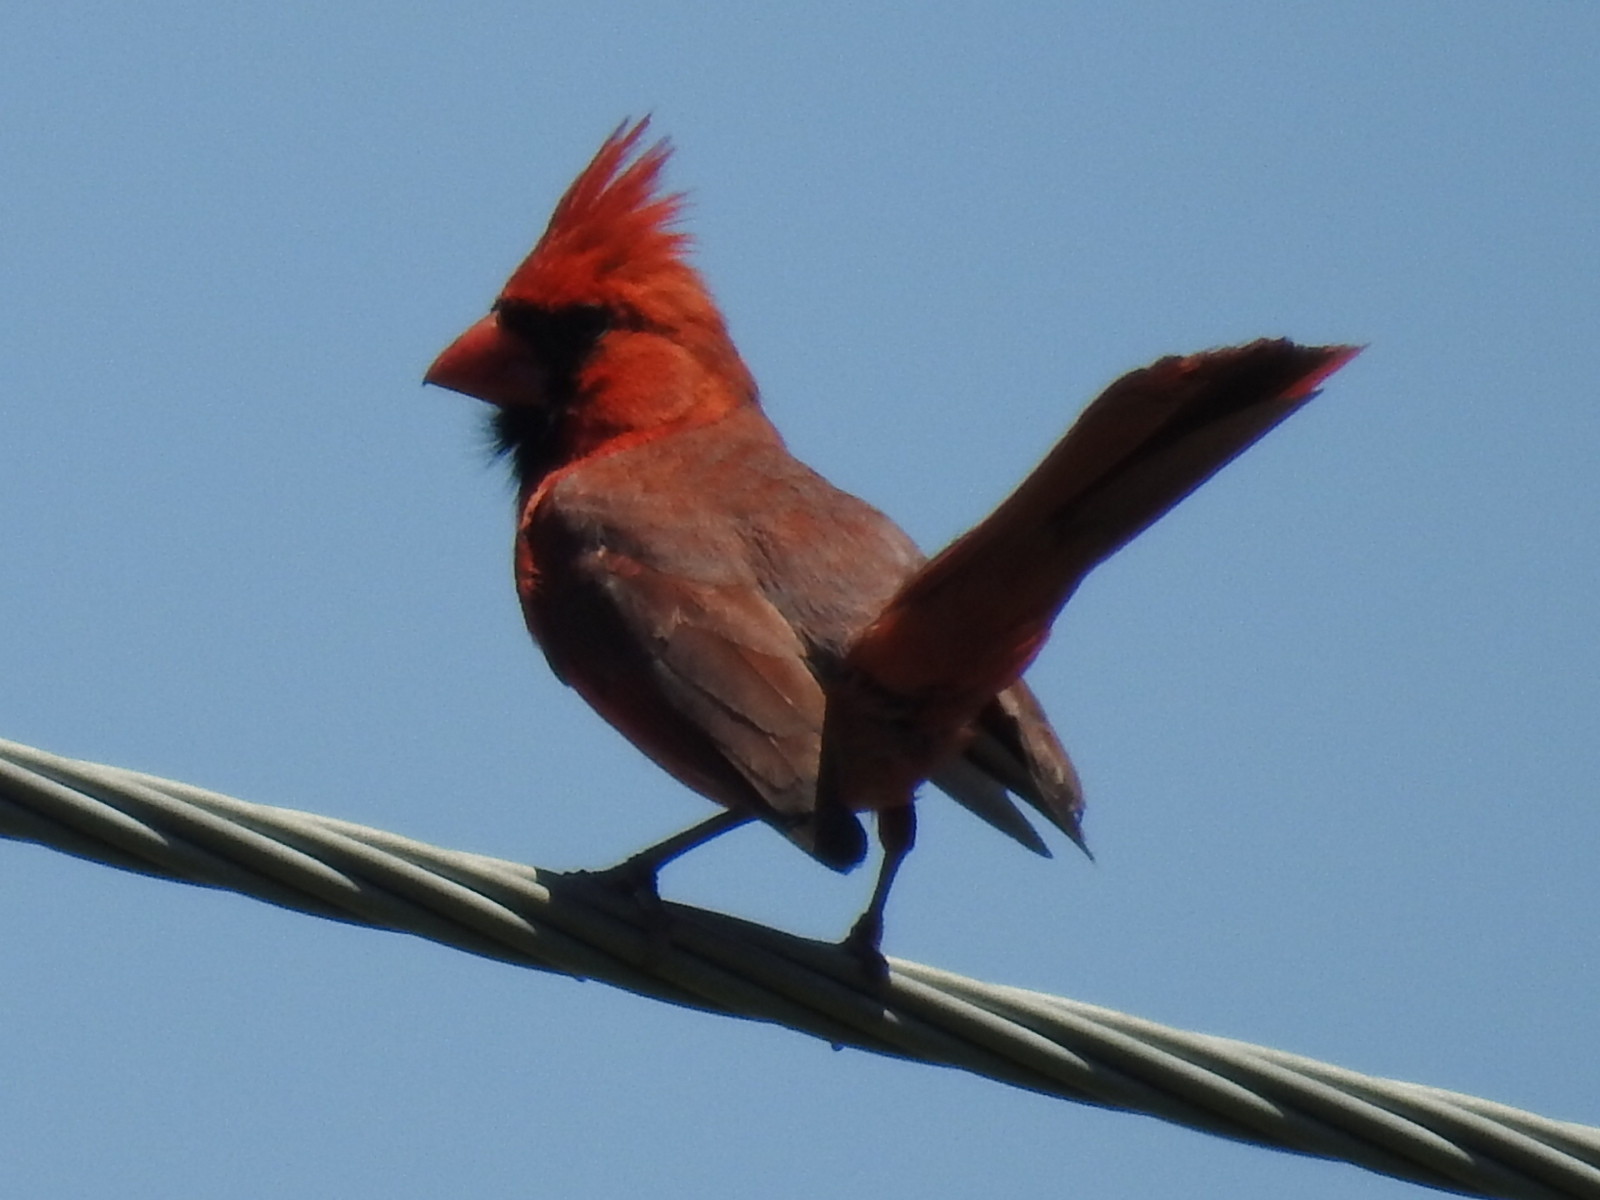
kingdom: Animalia
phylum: Chordata
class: Aves
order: Passeriformes
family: Cardinalidae
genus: Cardinalis
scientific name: Cardinalis cardinalis
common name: Northern cardinal
